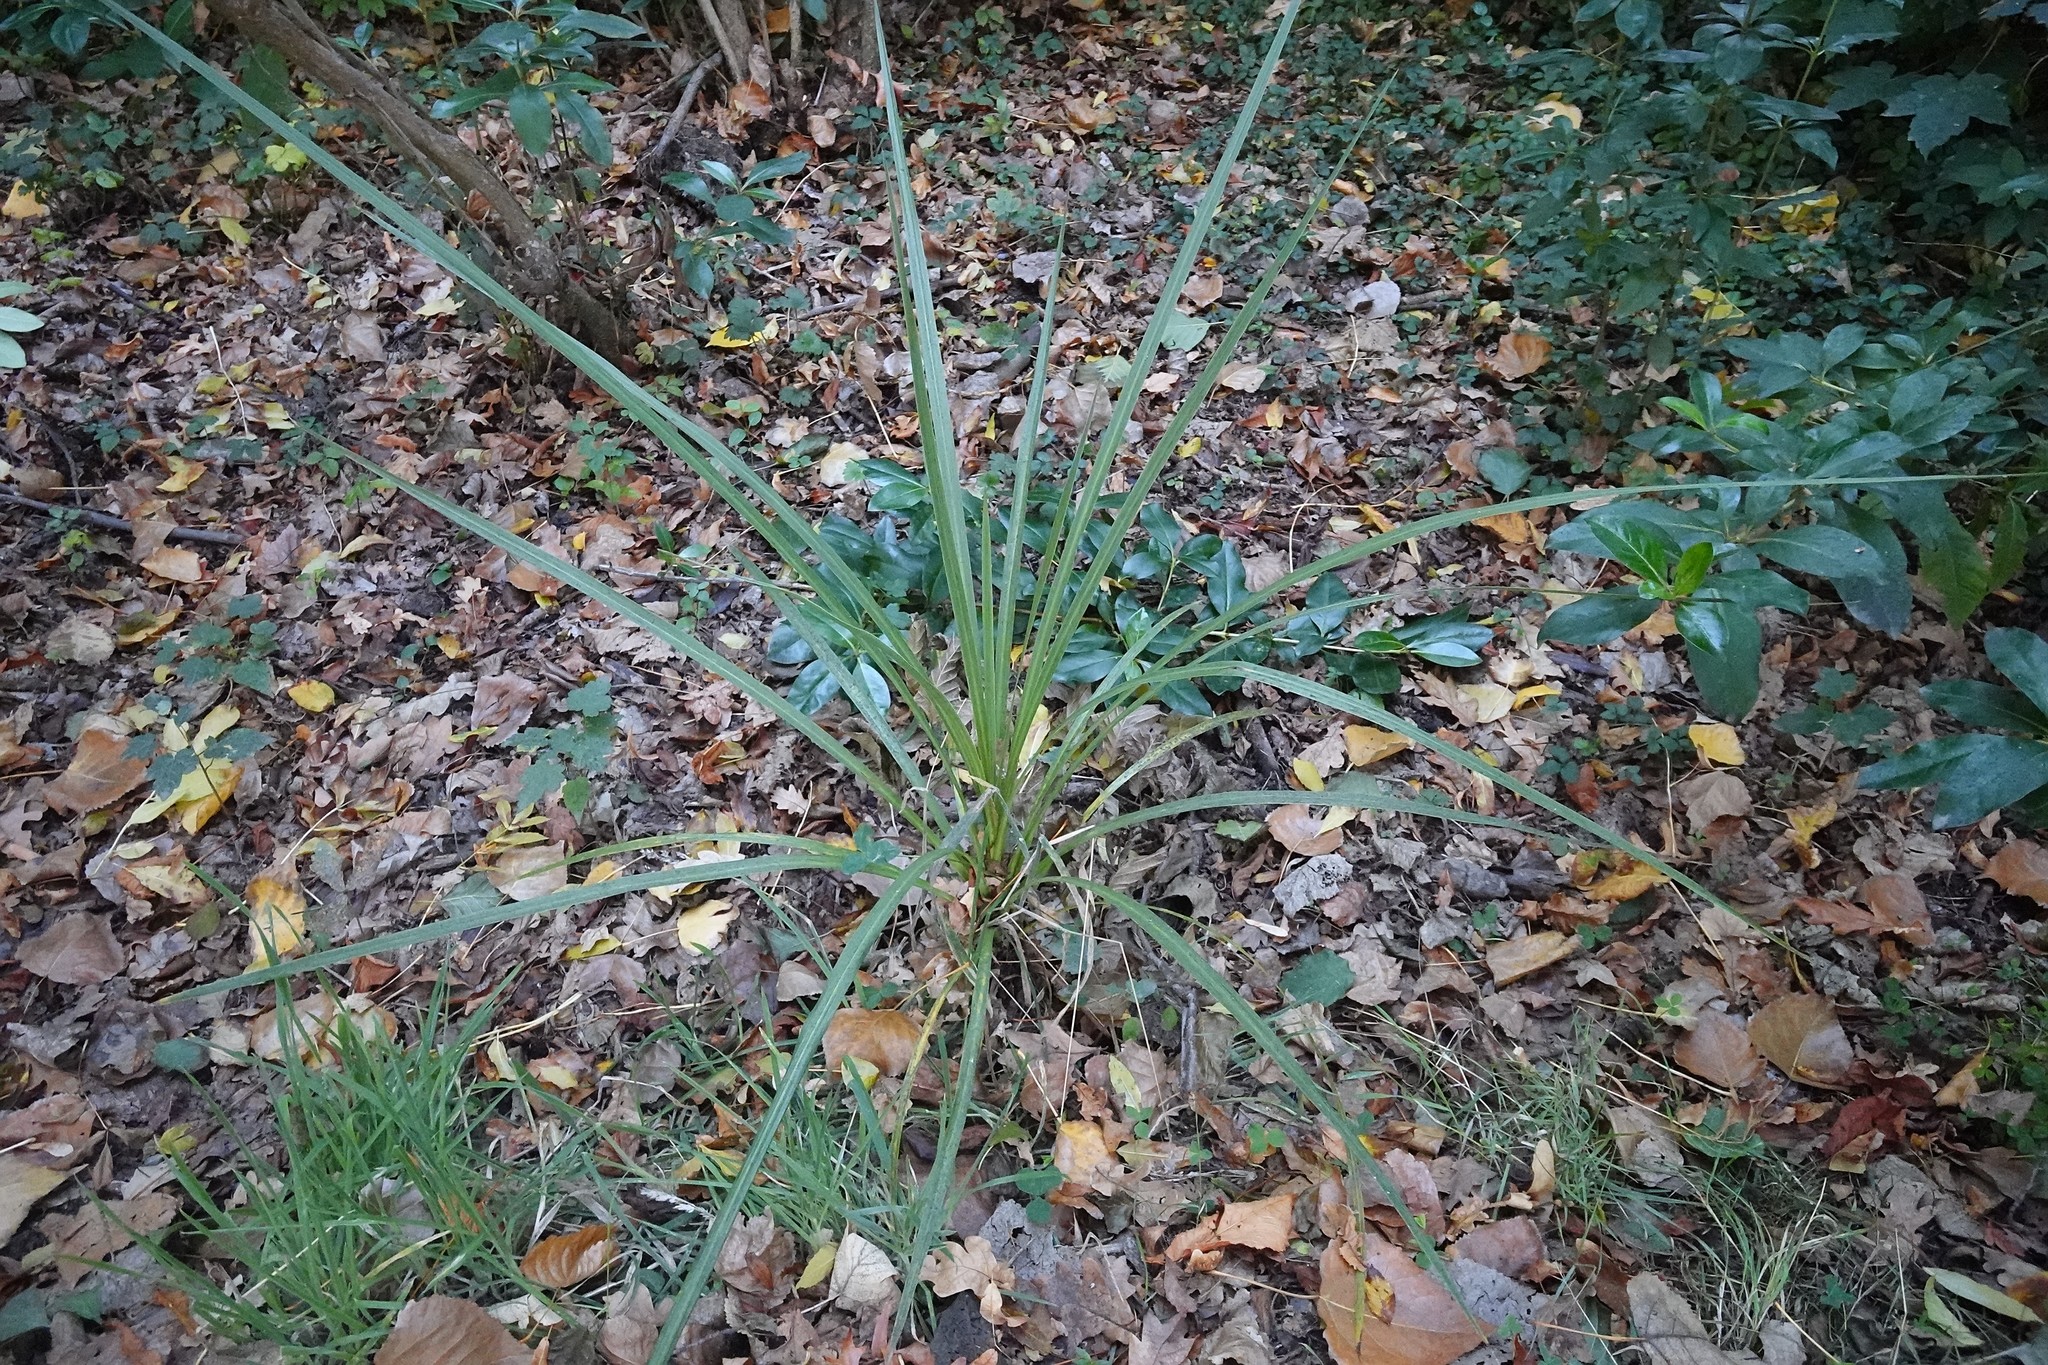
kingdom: Plantae
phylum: Tracheophyta
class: Liliopsida
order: Asparagales
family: Asparagaceae
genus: Cordyline
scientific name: Cordyline australis
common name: Cabbage-palm
